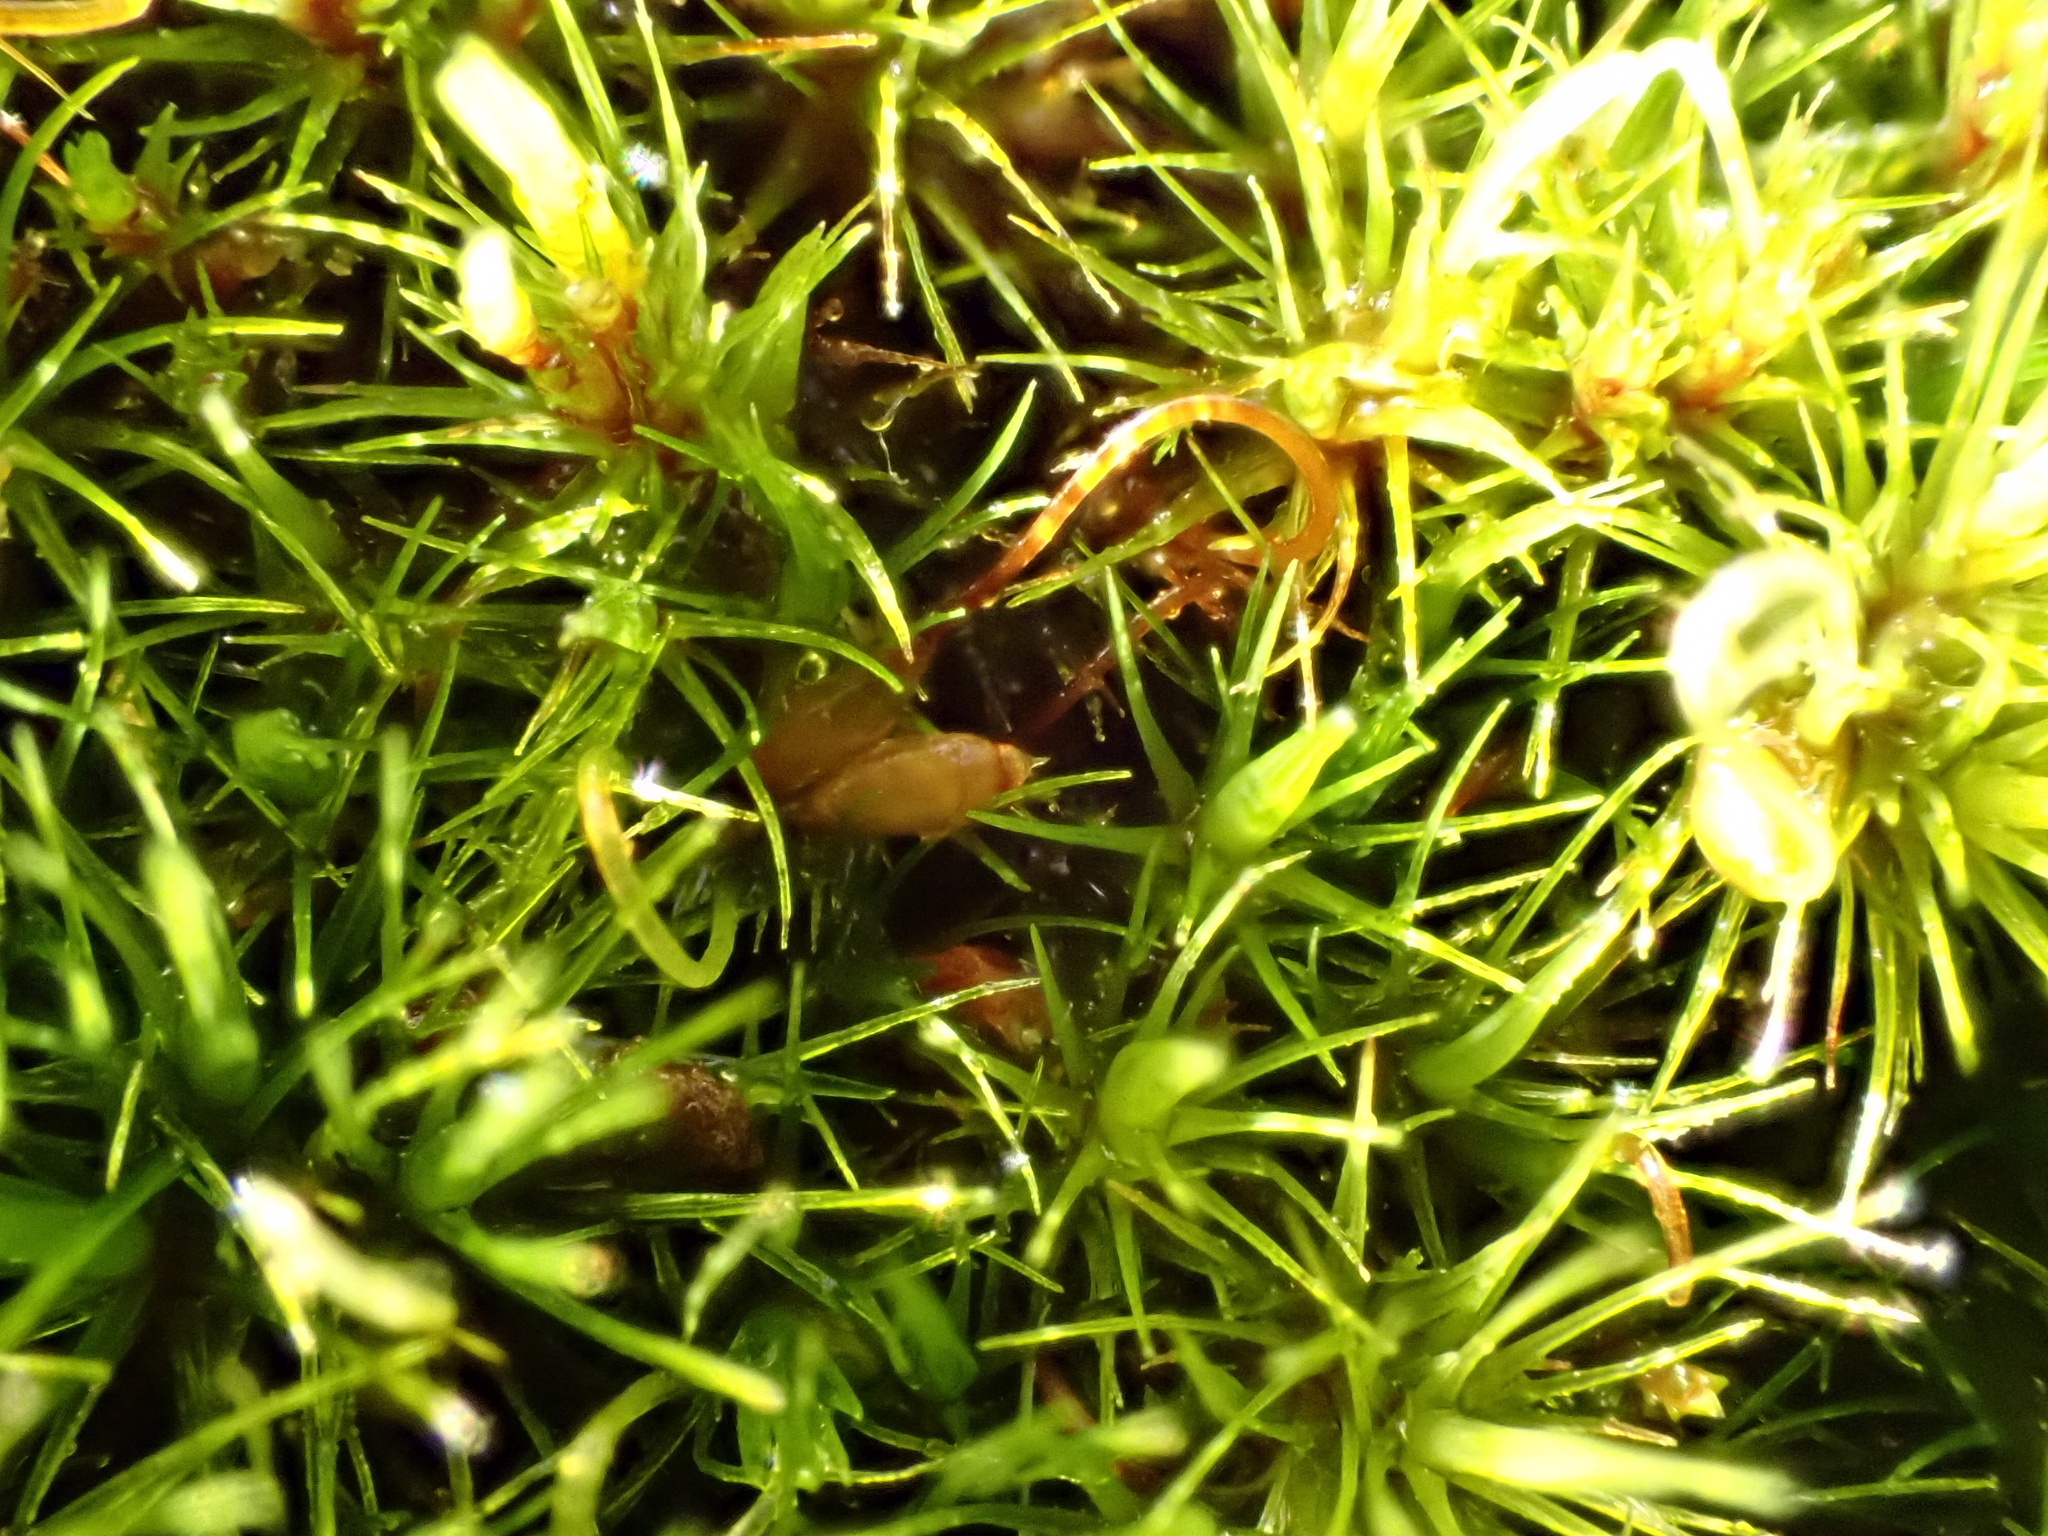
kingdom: Plantae
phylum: Bryophyta
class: Bryopsida
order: Dicranales
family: Leucobryaceae
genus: Campylopus
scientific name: Campylopus flexuosus
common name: Rusty swan-neck moss
